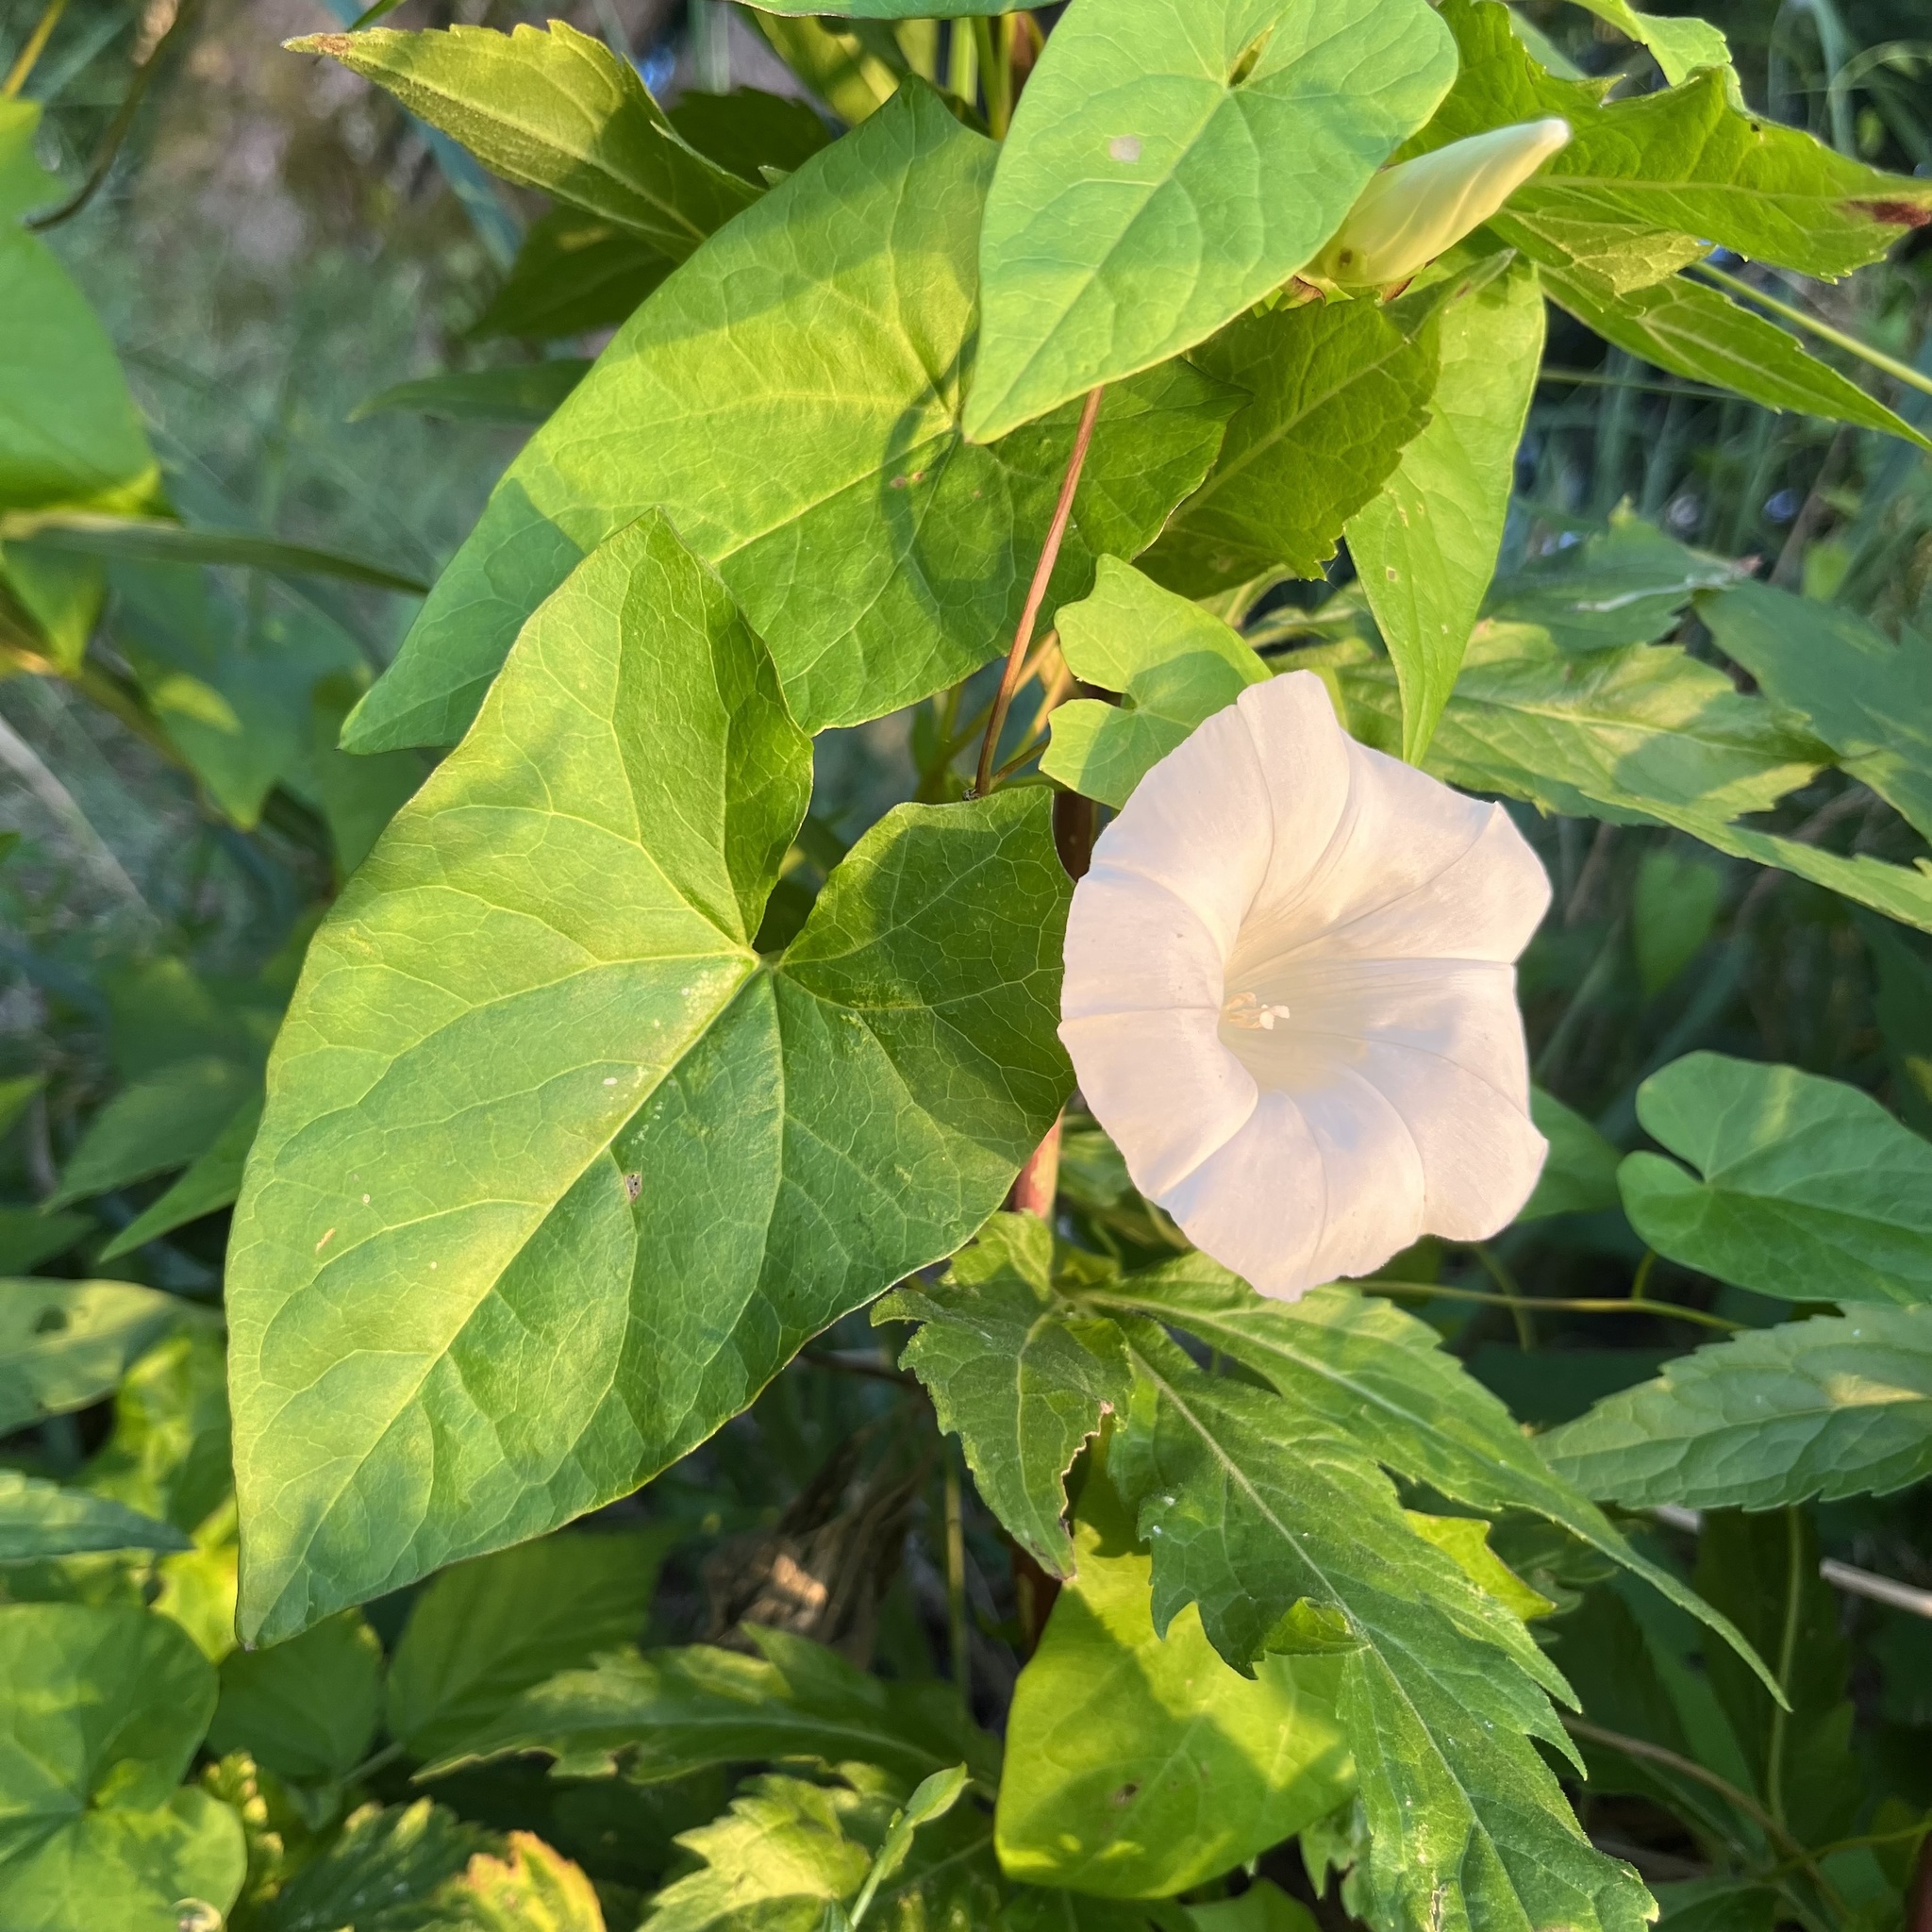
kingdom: Plantae
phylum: Tracheophyta
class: Magnoliopsida
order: Solanales
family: Convolvulaceae
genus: Calystegia
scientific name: Calystegia sepium
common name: Hedge bindweed
